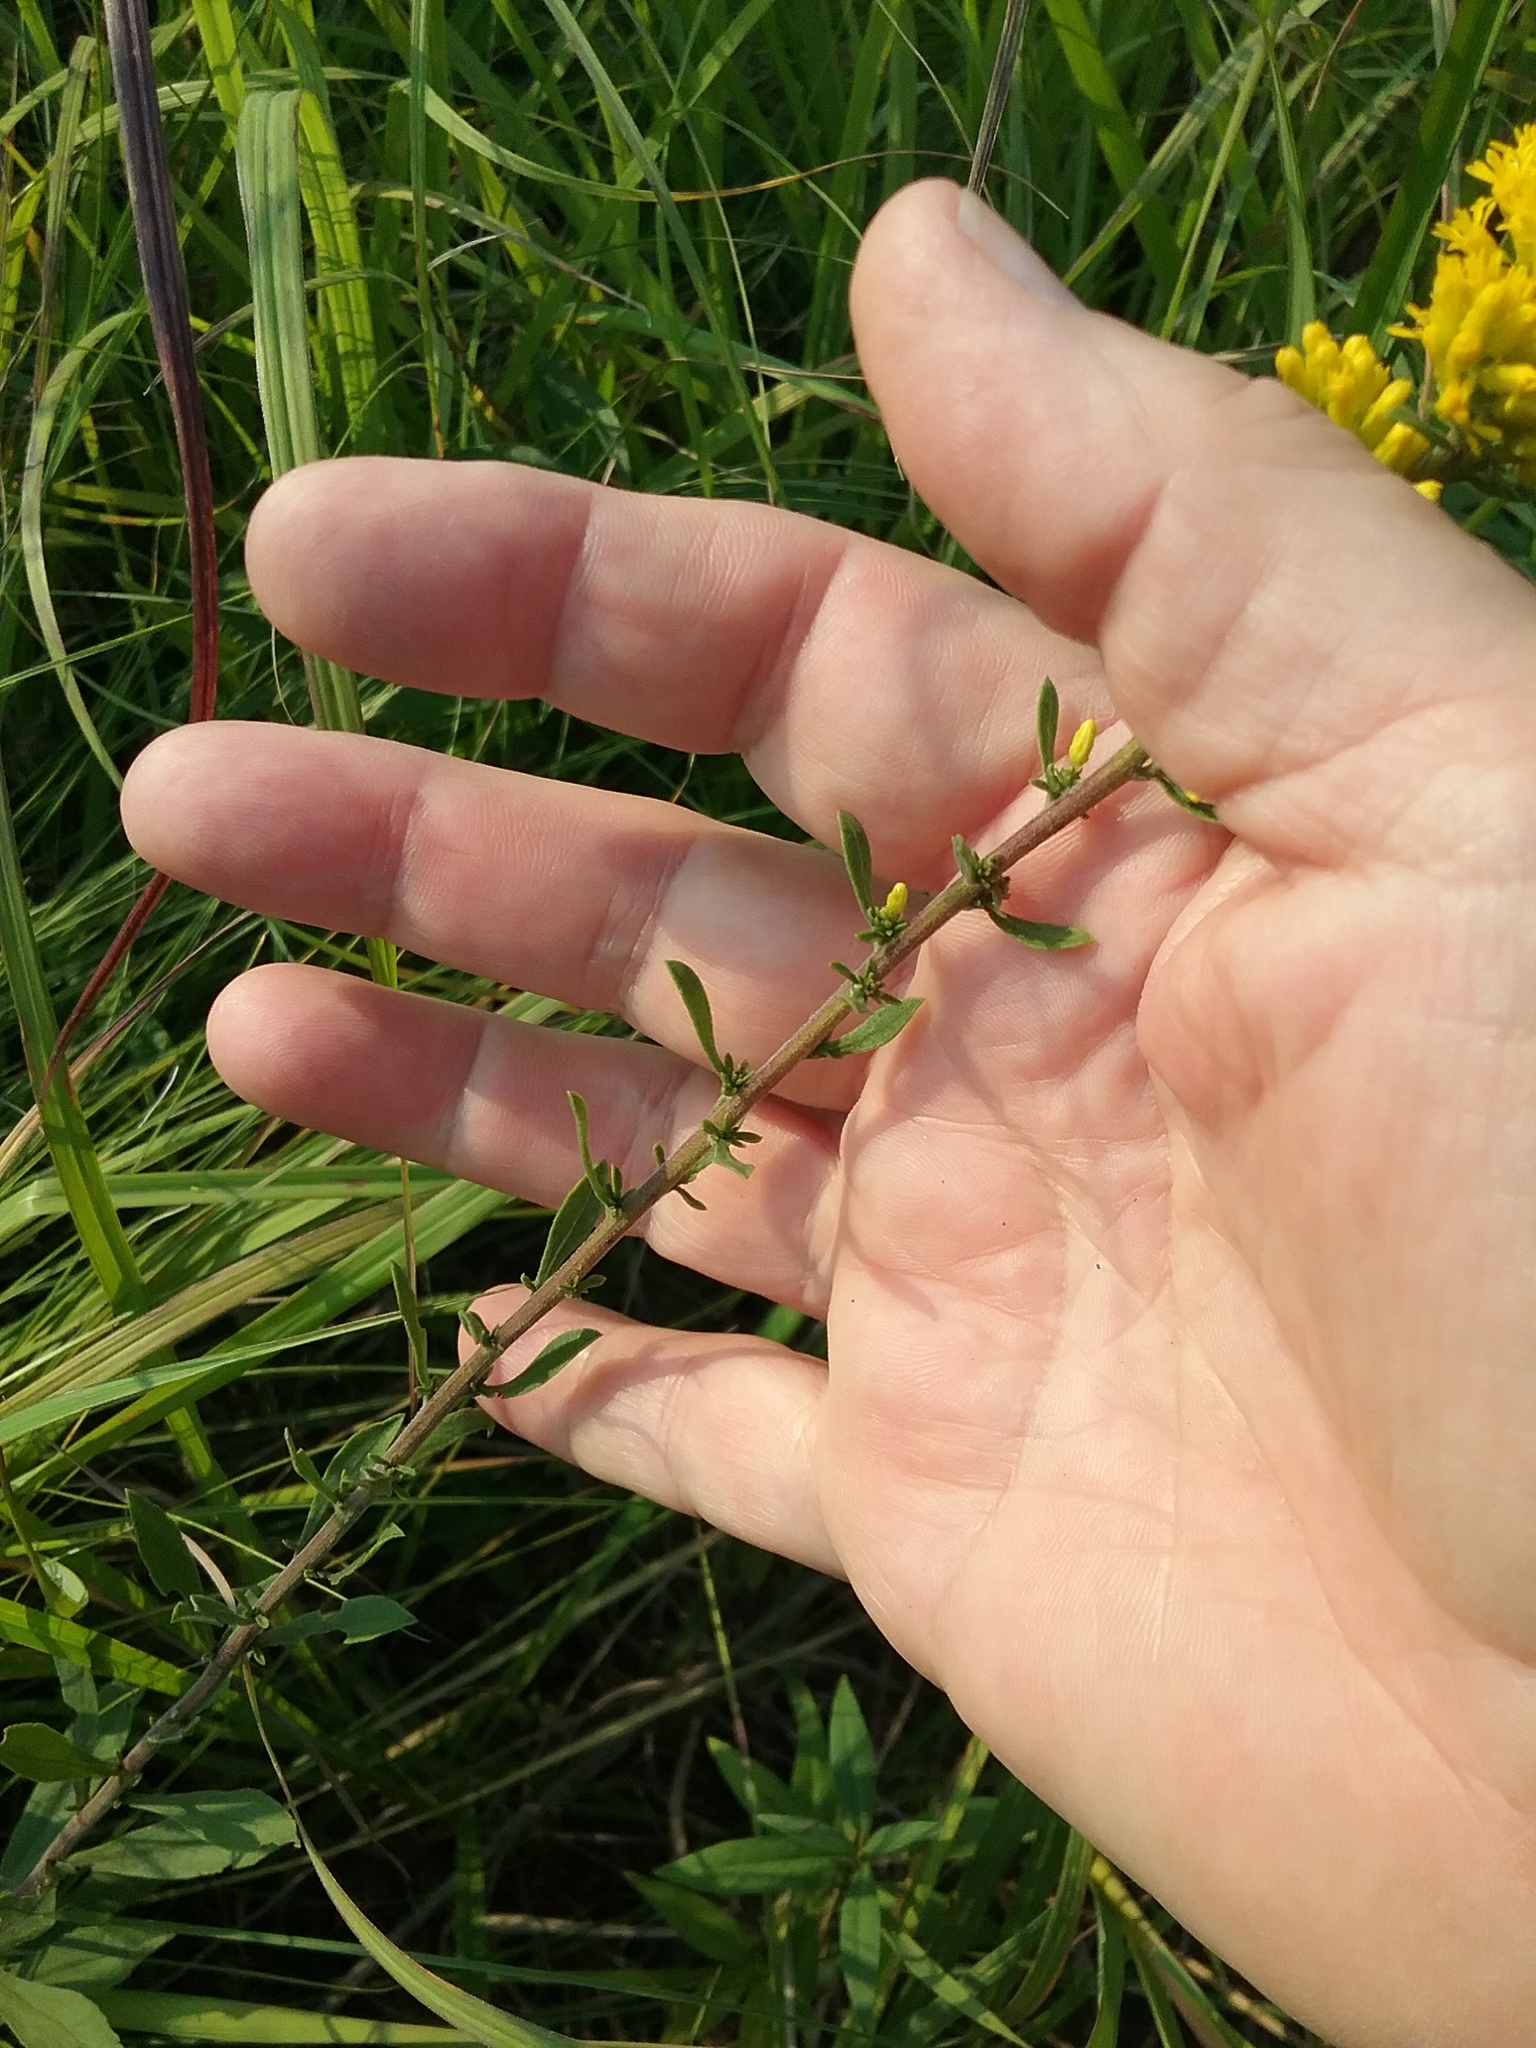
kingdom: Plantae
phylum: Tracheophyta
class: Magnoliopsida
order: Asterales
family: Asteraceae
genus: Solidago
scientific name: Solidago nemoralis
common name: Grey goldenrod
